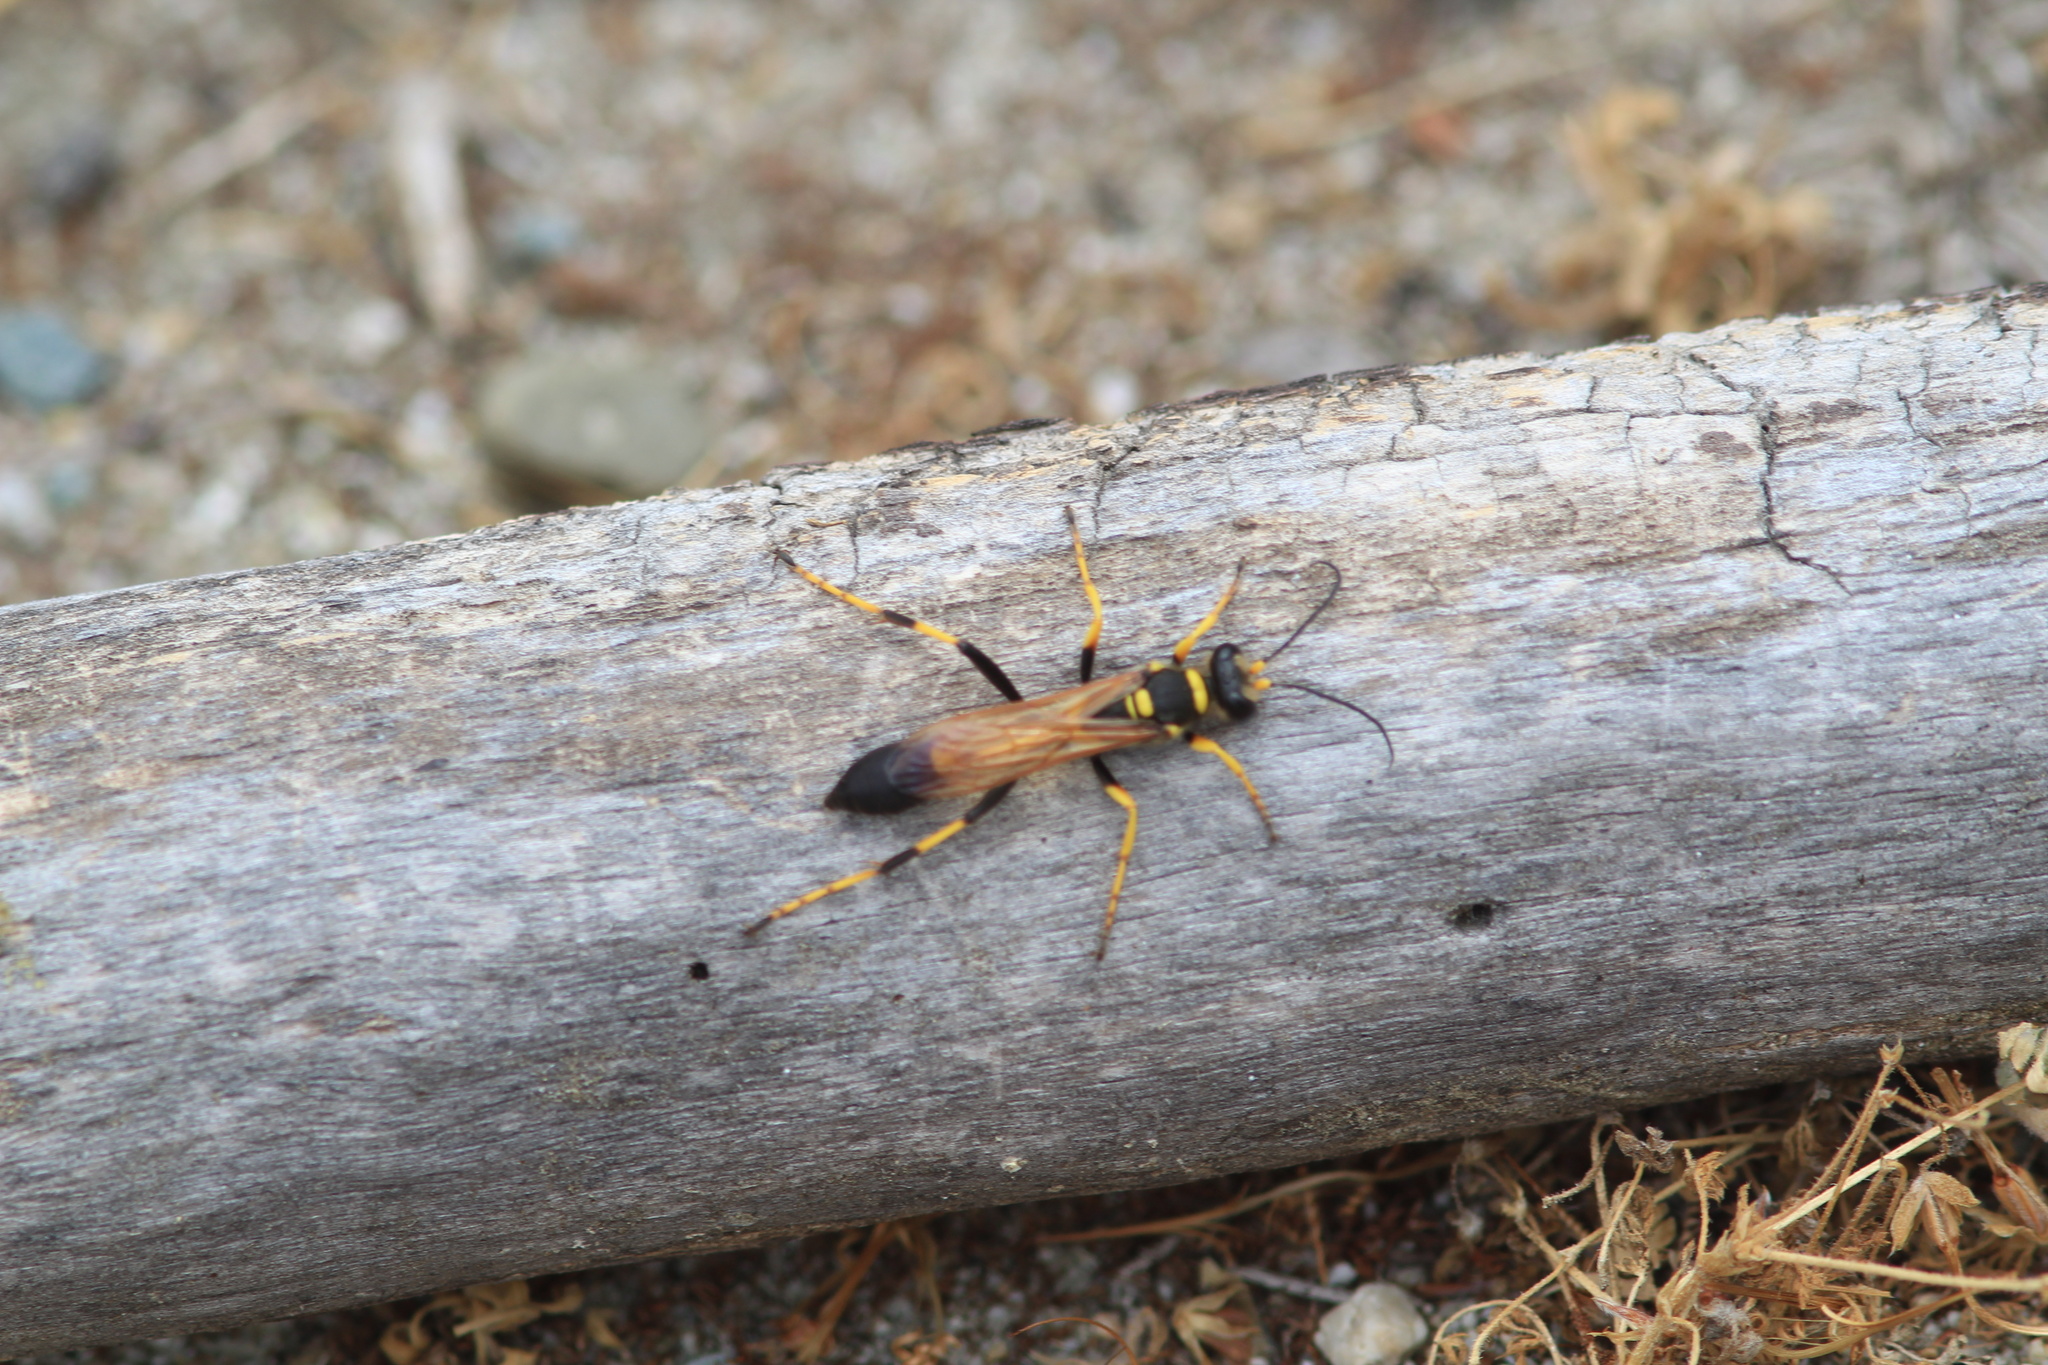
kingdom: Animalia
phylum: Arthropoda
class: Insecta
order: Hymenoptera
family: Sphecidae
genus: Sceliphron
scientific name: Sceliphron caementarium
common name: Mud dauber
